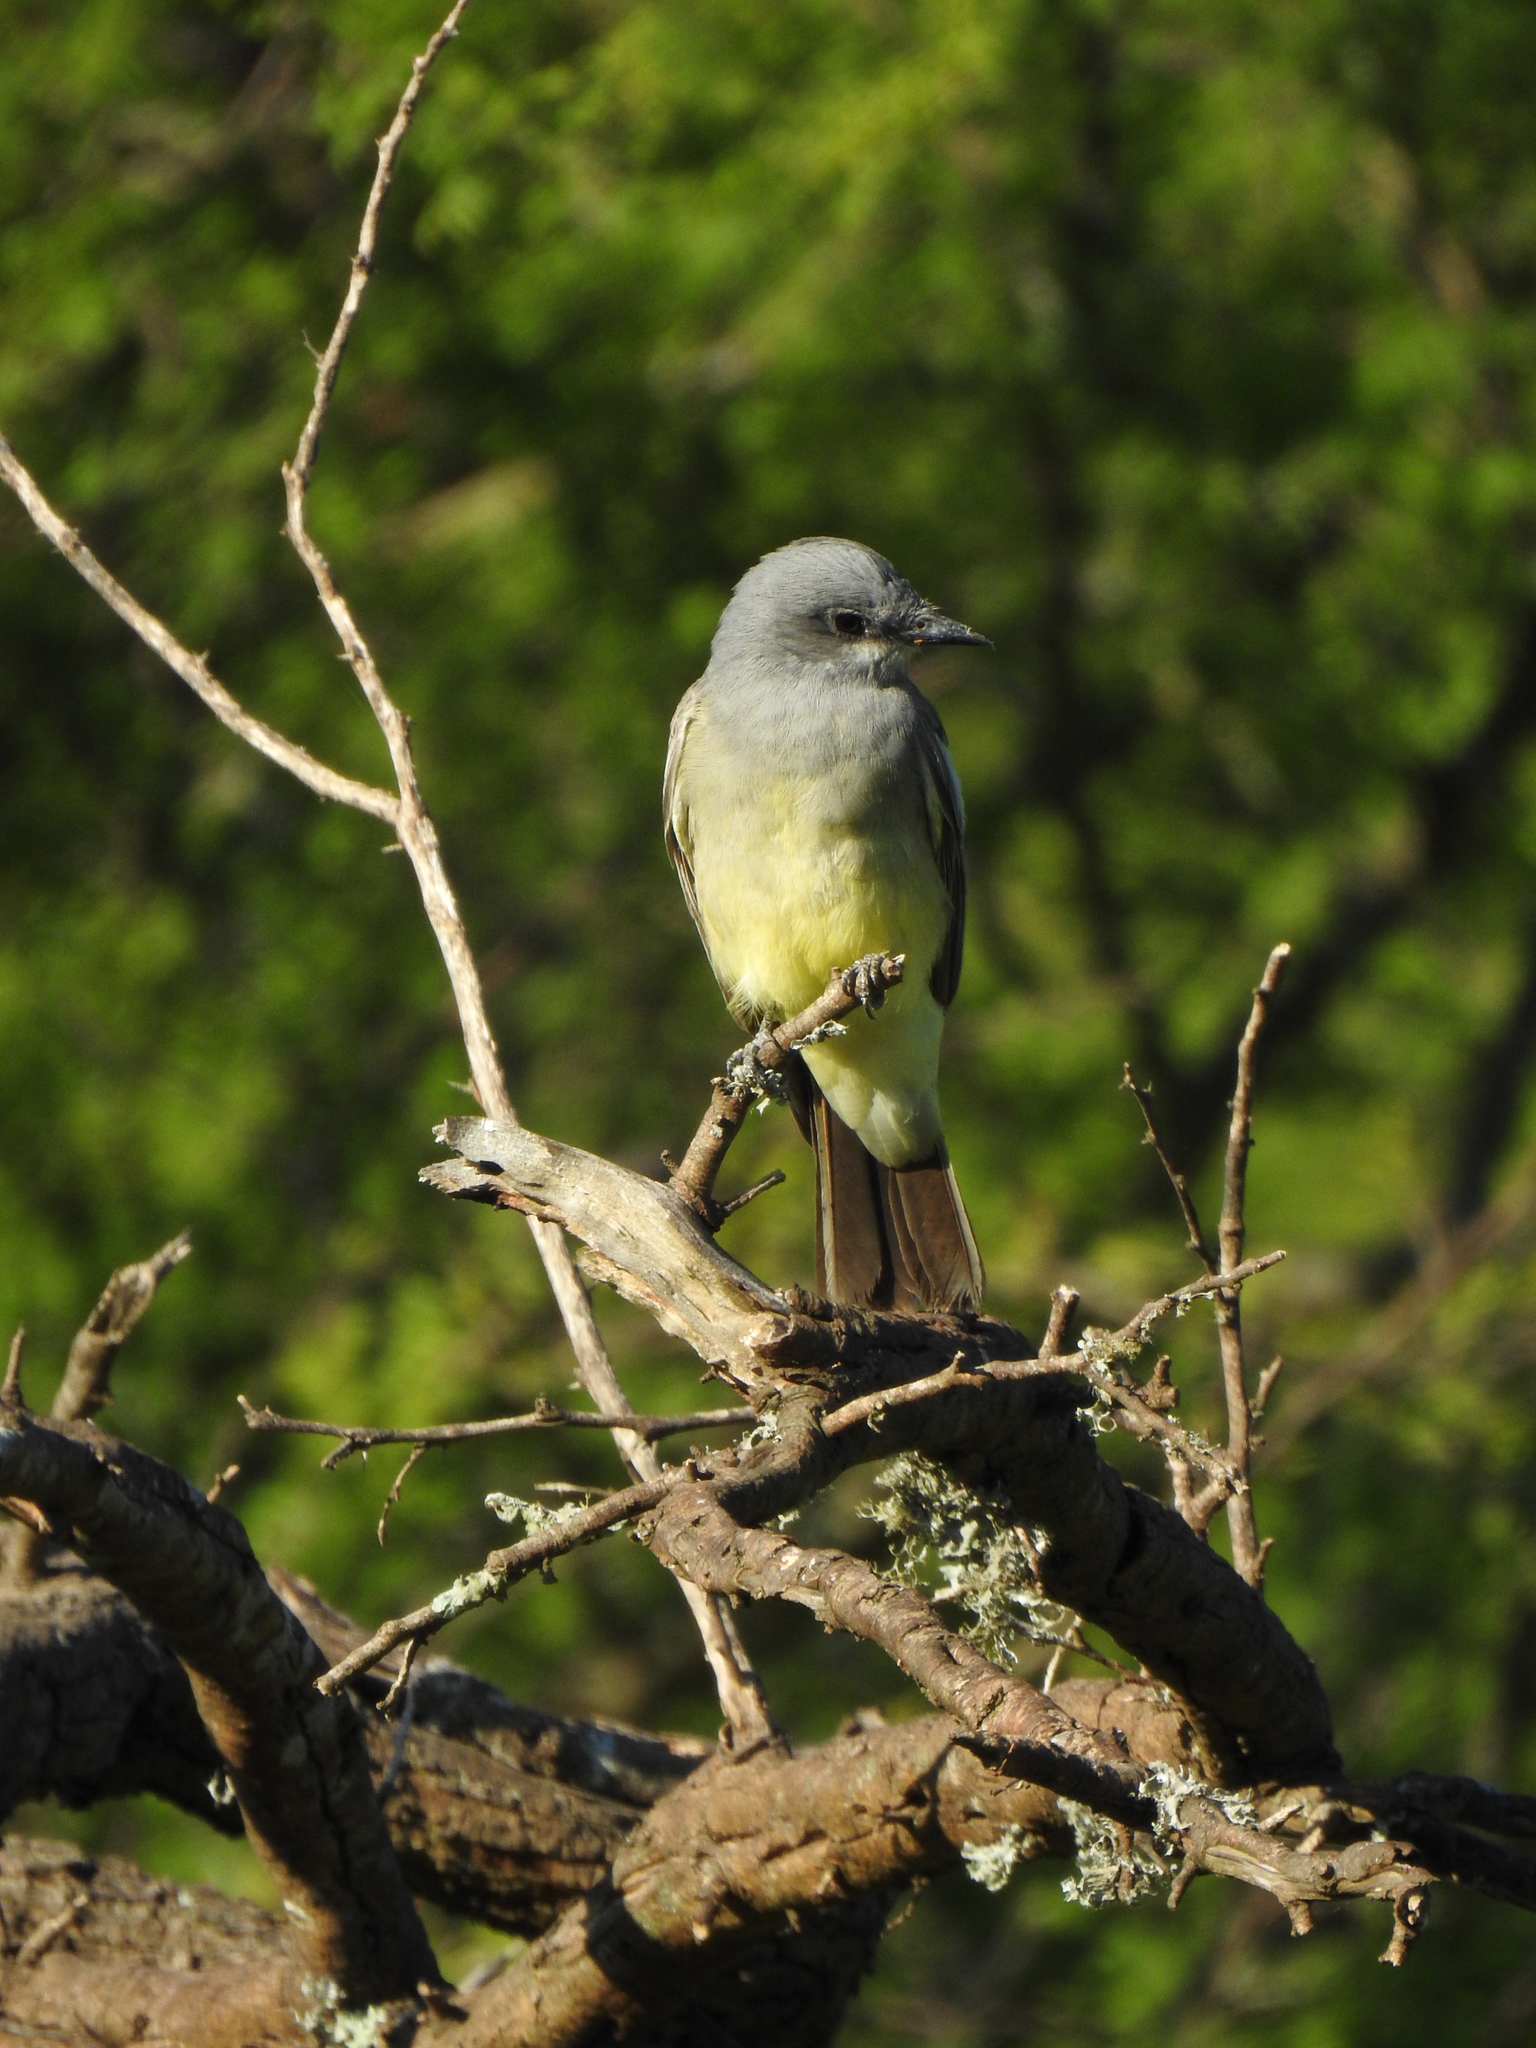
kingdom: Animalia
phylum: Chordata
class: Aves
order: Passeriformes
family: Tyrannidae
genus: Tyrannus
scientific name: Tyrannus vociferans
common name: Cassin's kingbird
